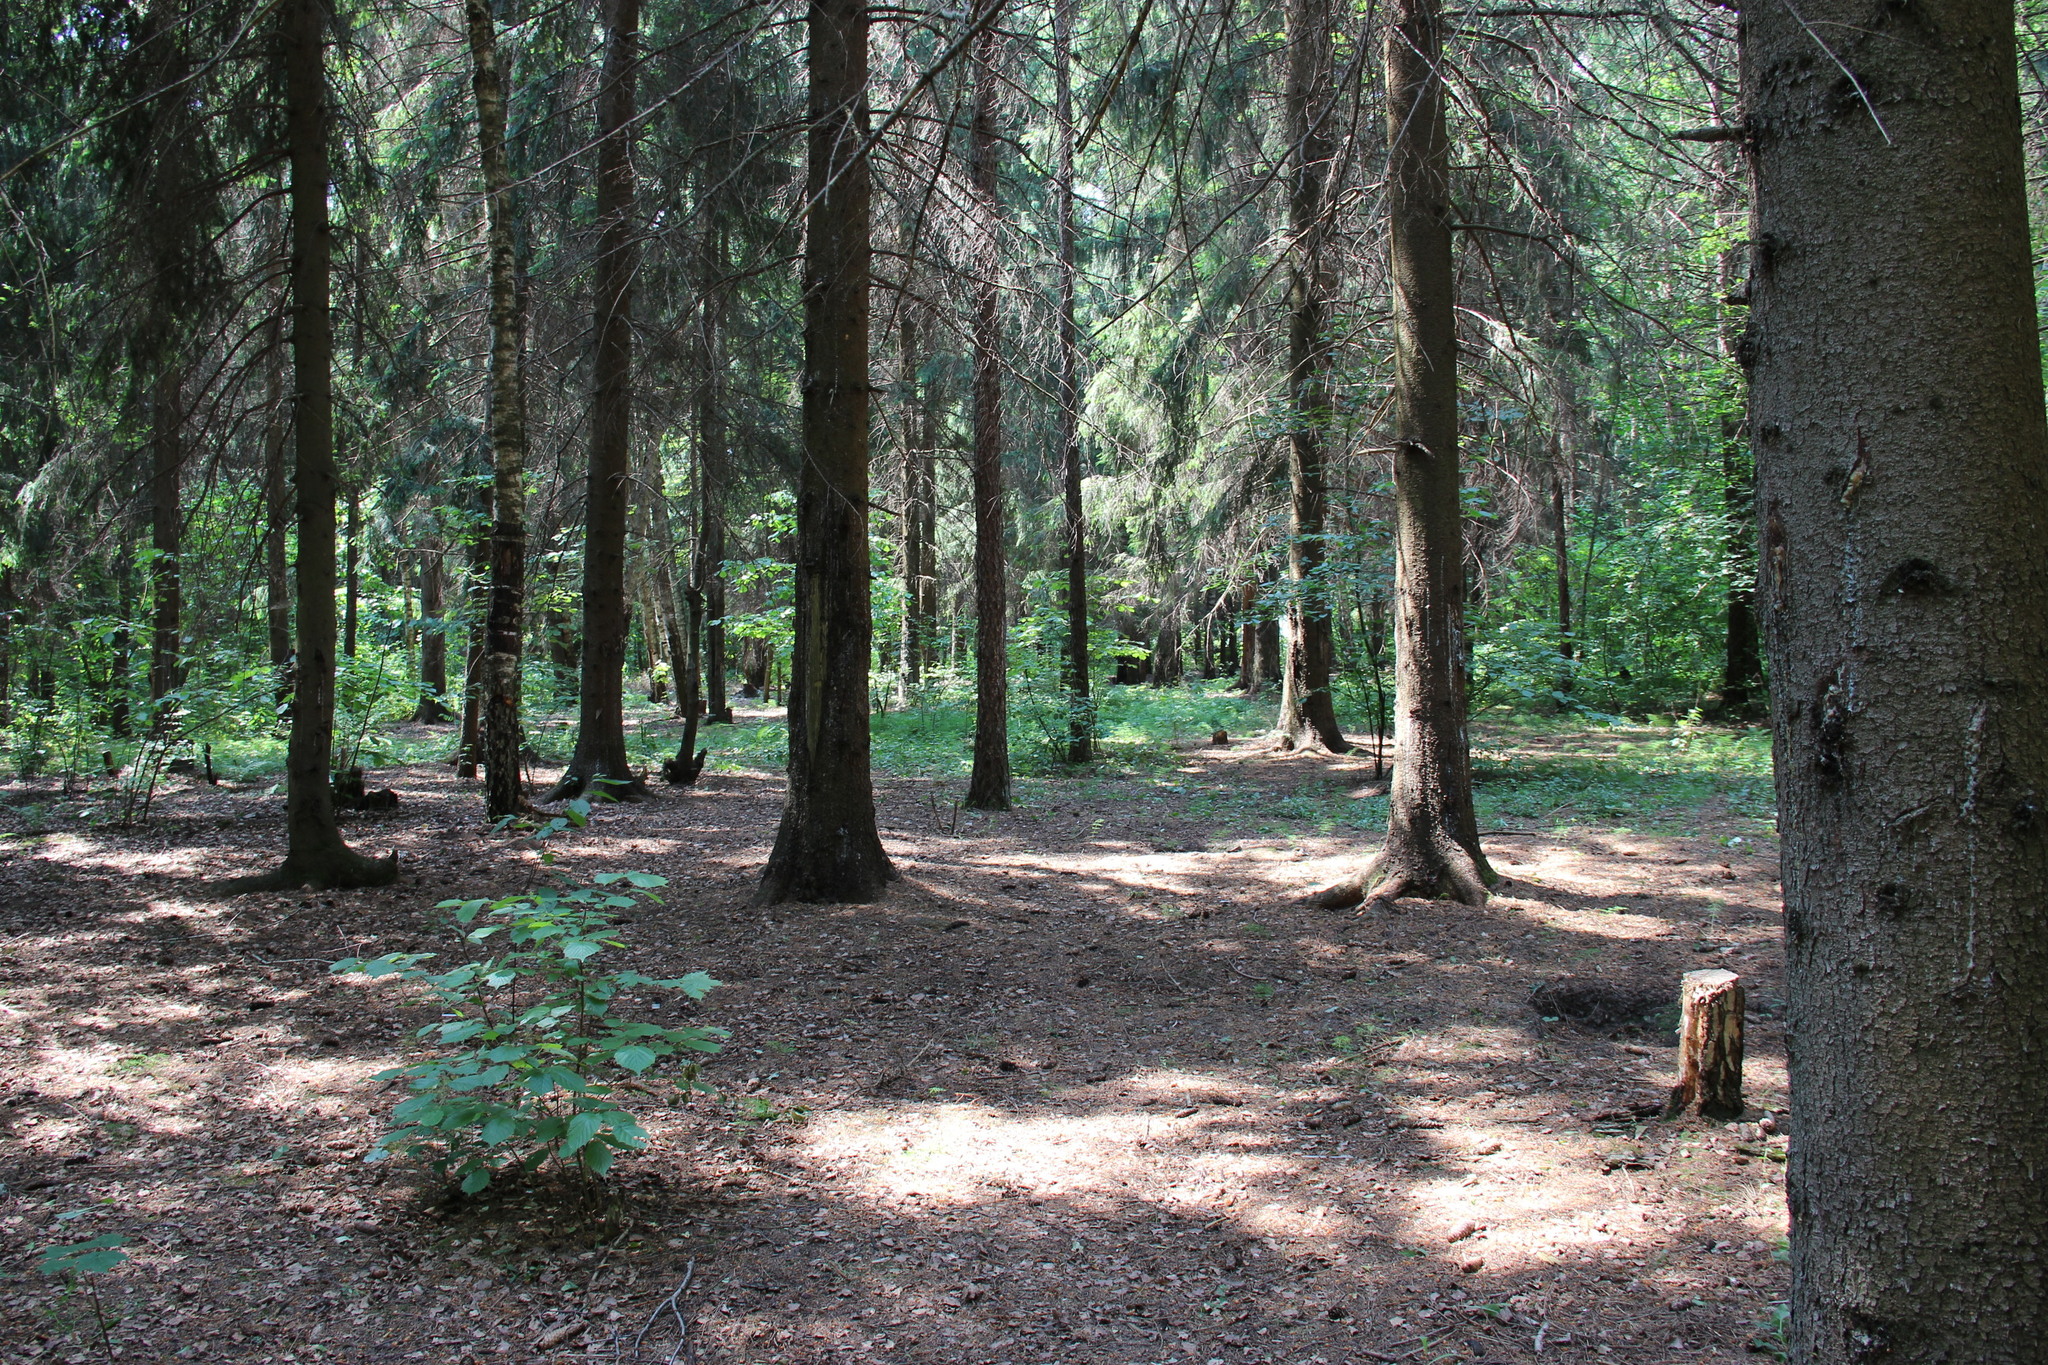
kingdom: Plantae
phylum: Tracheophyta
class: Pinopsida
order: Pinales
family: Pinaceae
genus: Picea
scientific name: Picea abies
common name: Norway spruce
